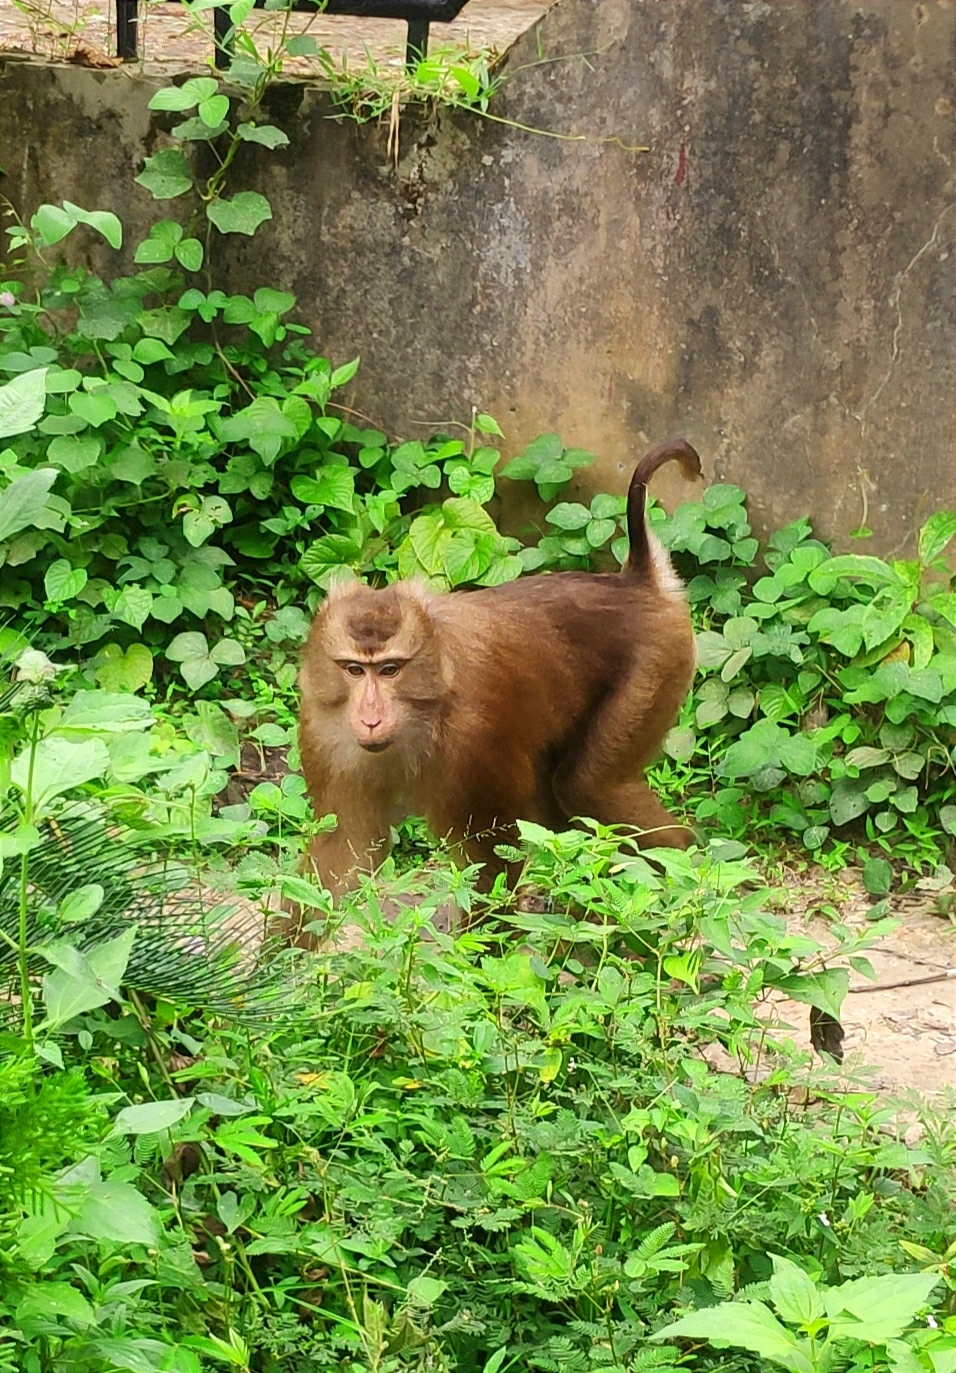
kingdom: Animalia
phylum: Chordata
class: Mammalia
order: Primates
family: Cercopithecidae
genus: Macaca
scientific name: Macaca leonina
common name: Northern pig-tailed macaque
